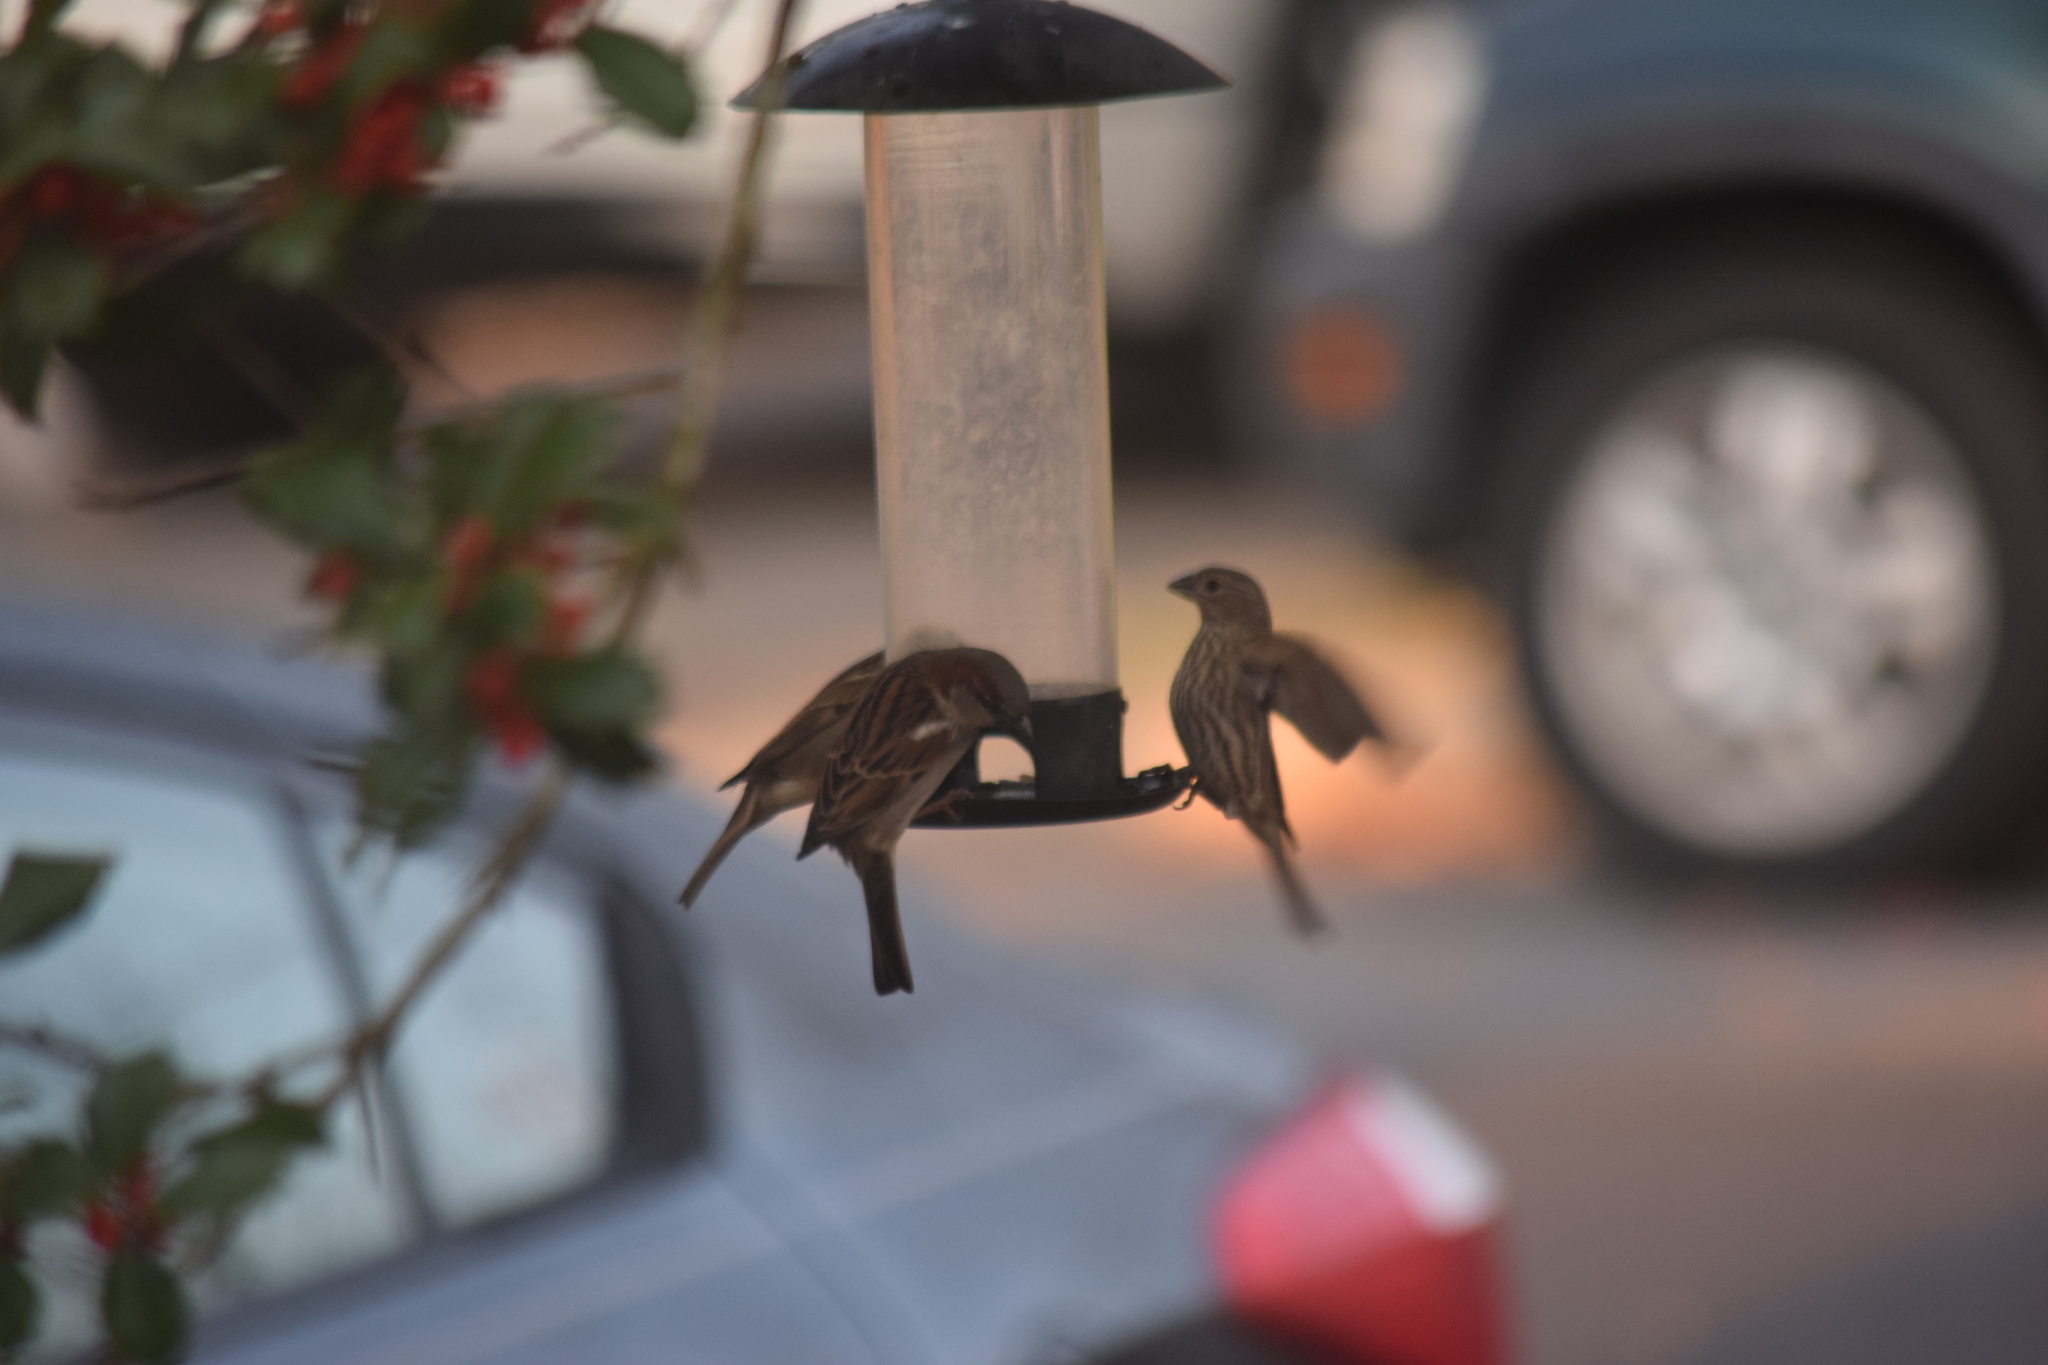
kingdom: Animalia
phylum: Chordata
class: Aves
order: Passeriformes
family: Passeridae
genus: Passer
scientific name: Passer domesticus
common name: House sparrow
